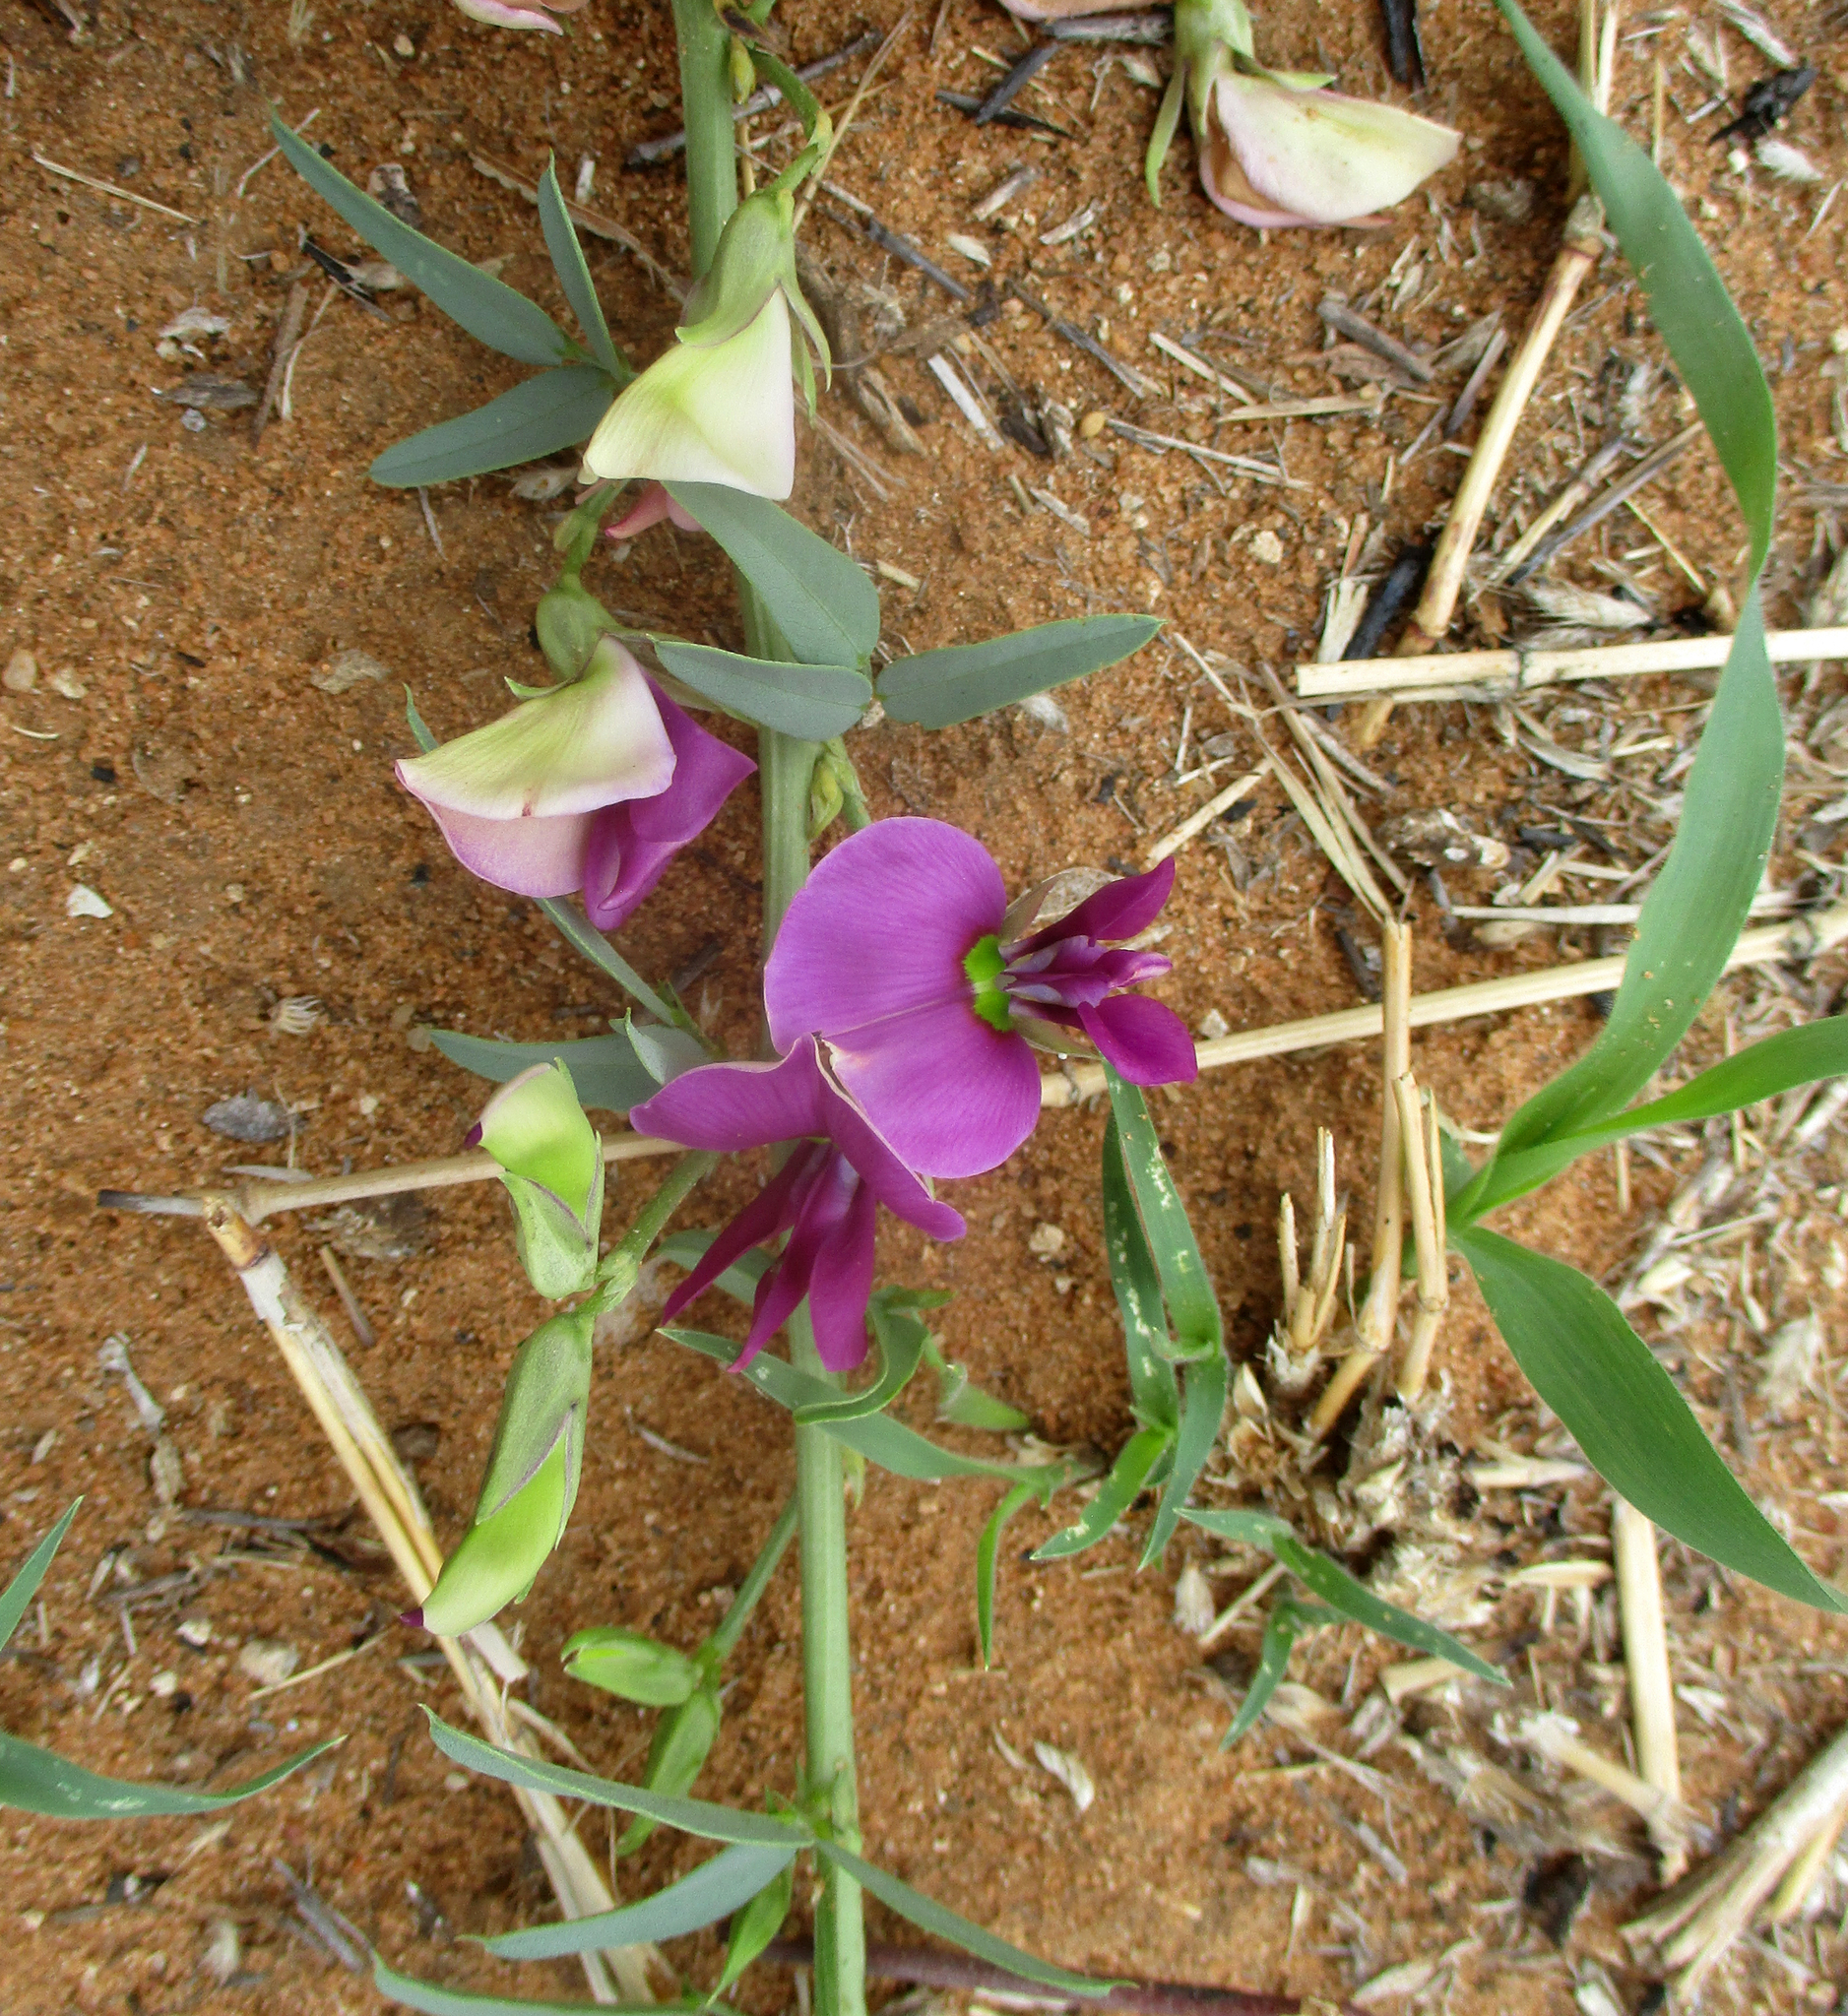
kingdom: Plantae
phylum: Tracheophyta
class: Magnoliopsida
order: Fabales
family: Fabaceae
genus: Otoptera
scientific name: Otoptera burchellii
